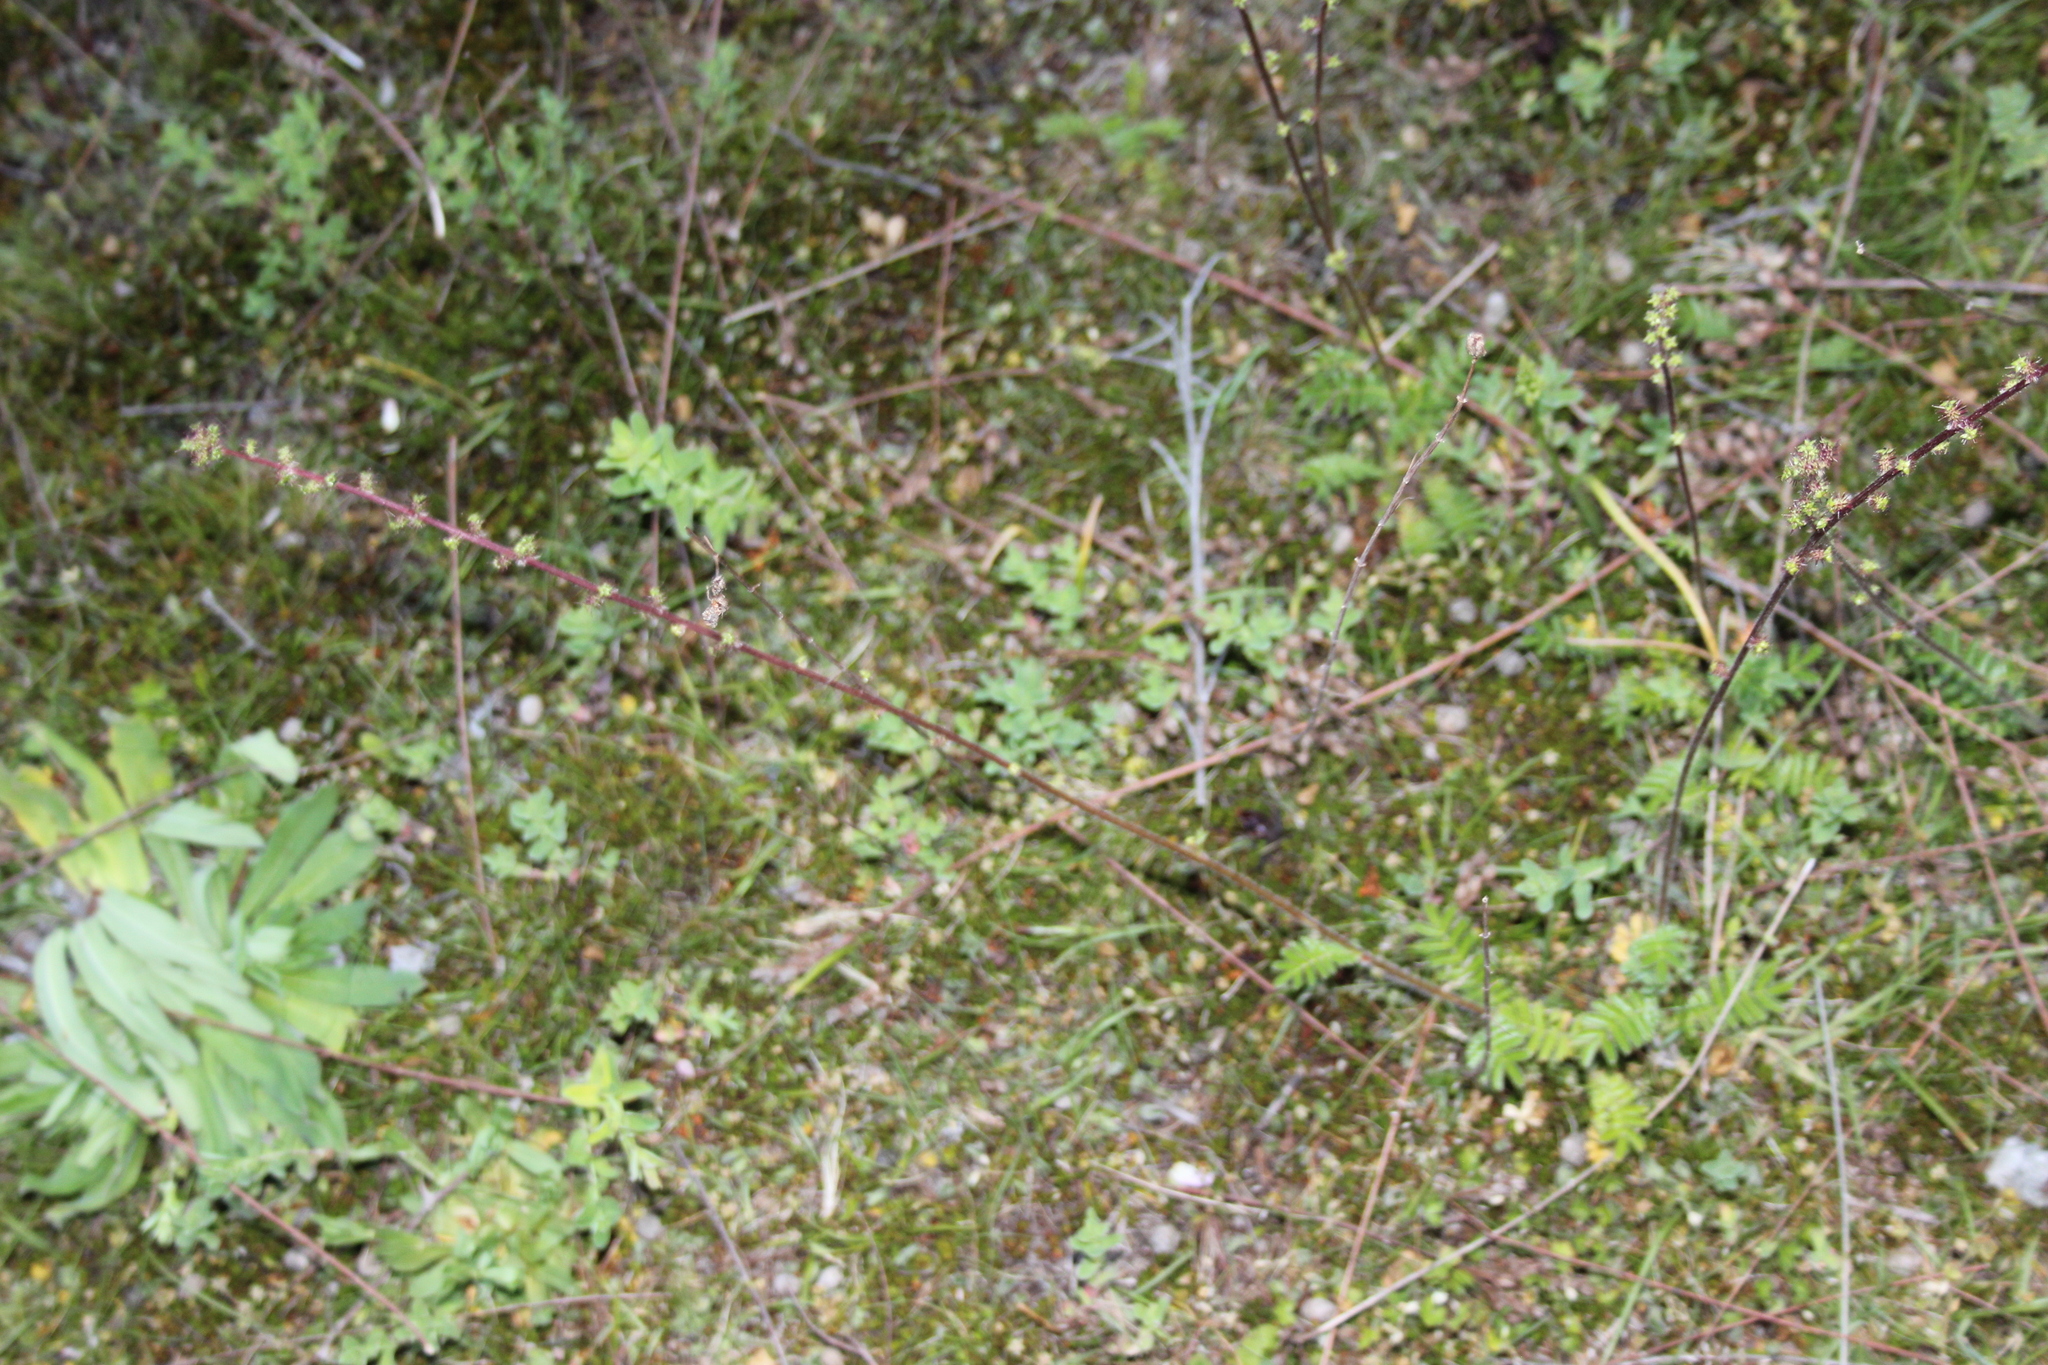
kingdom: Plantae
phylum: Tracheophyta
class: Magnoliopsida
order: Rosales
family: Rosaceae
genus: Acaena
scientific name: Acaena agnipila
